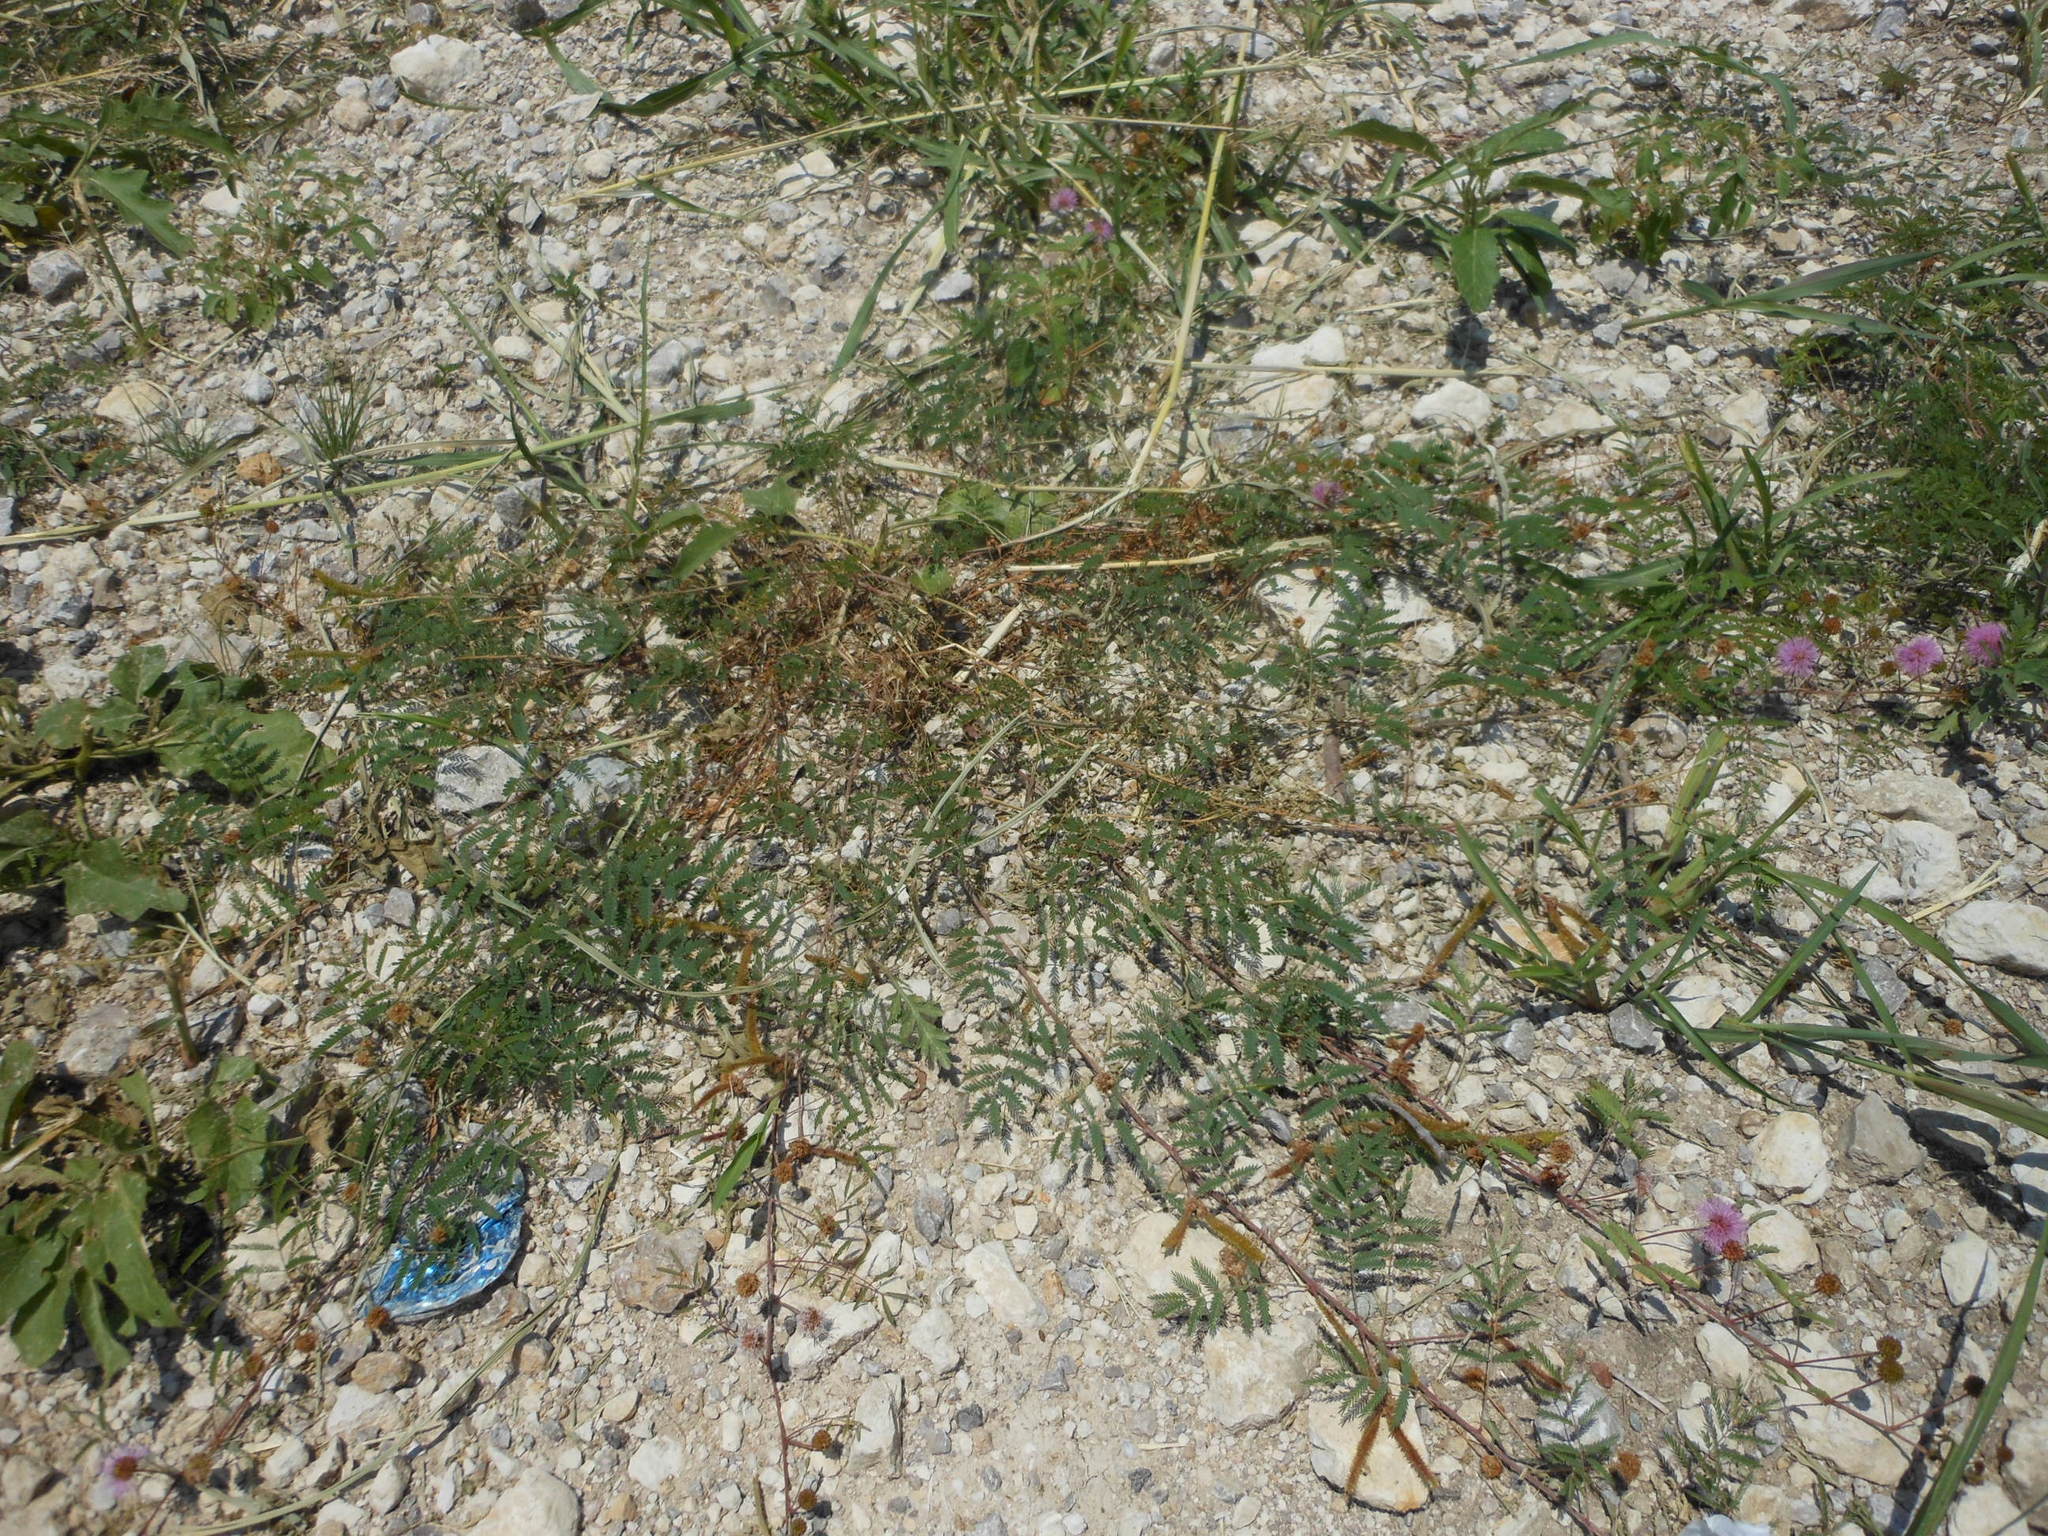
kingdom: Plantae
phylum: Tracheophyta
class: Magnoliopsida
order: Fabales
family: Fabaceae
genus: Mimosa
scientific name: Mimosa quadrivalvis
